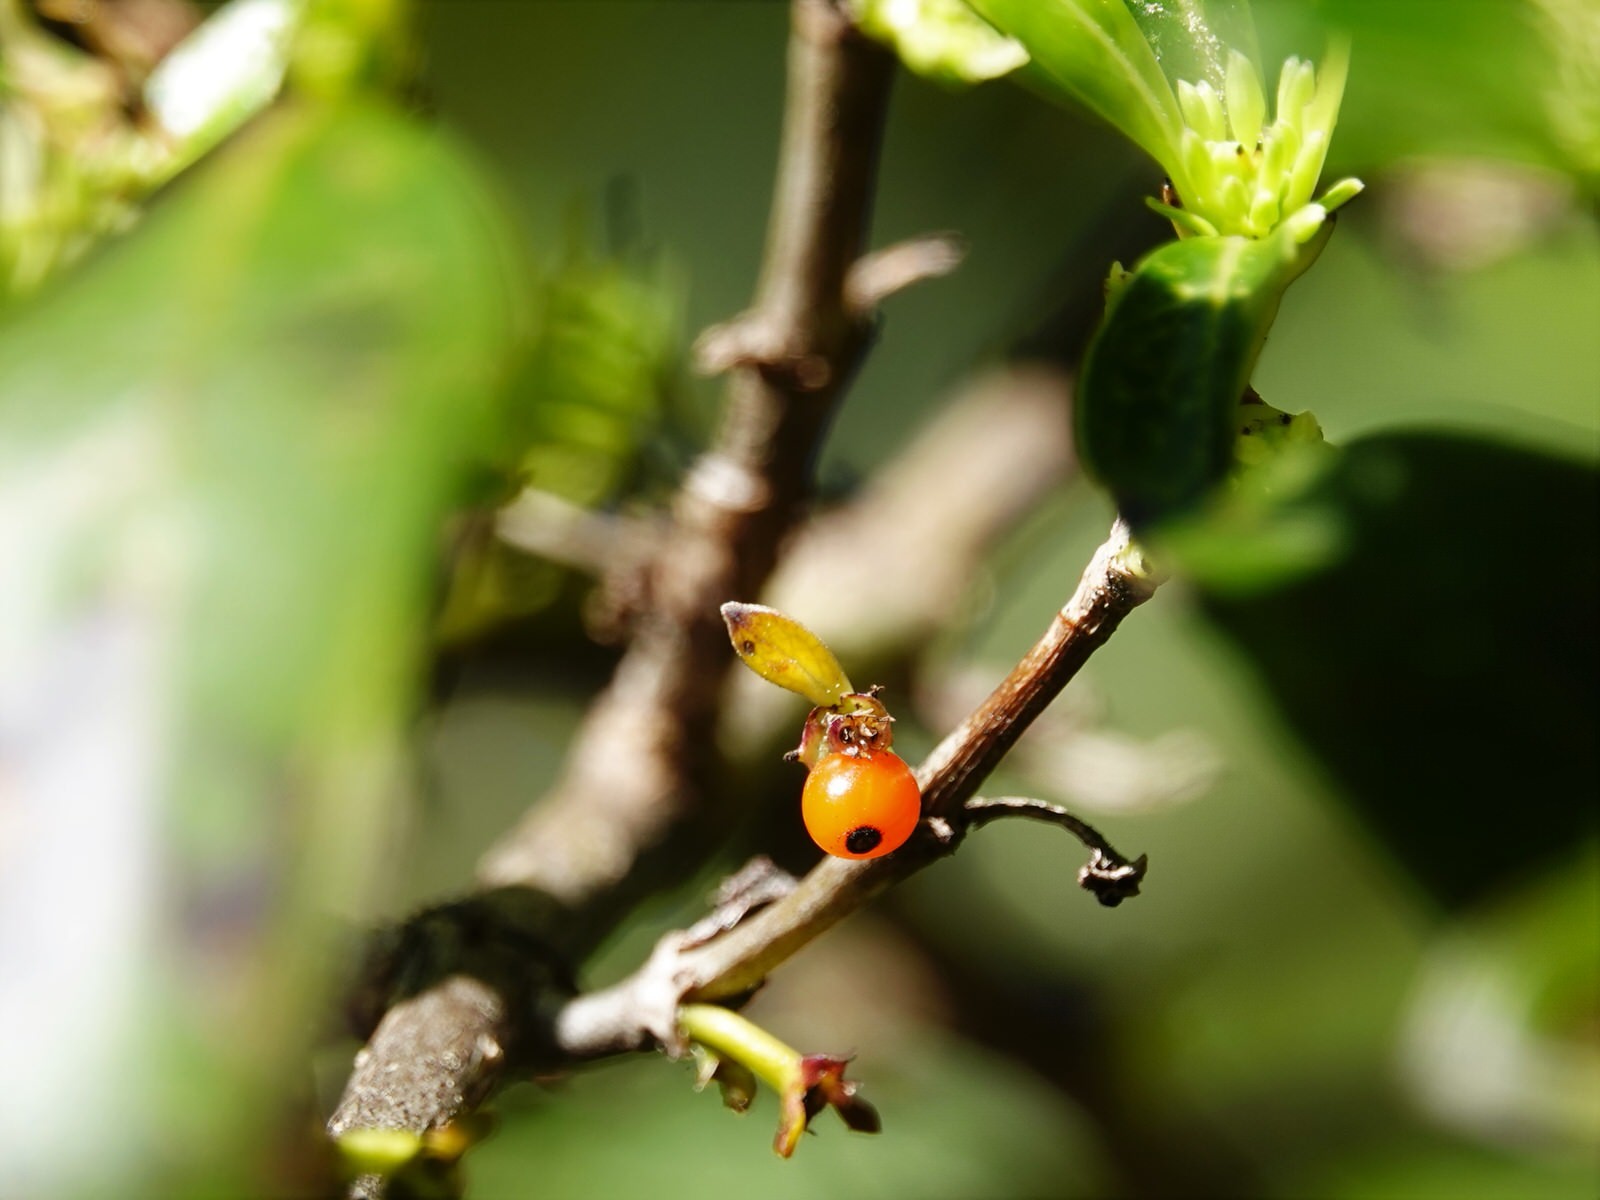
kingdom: Plantae
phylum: Tracheophyta
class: Magnoliopsida
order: Gentianales
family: Rubiaceae
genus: Coprosma
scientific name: Coprosma robusta
